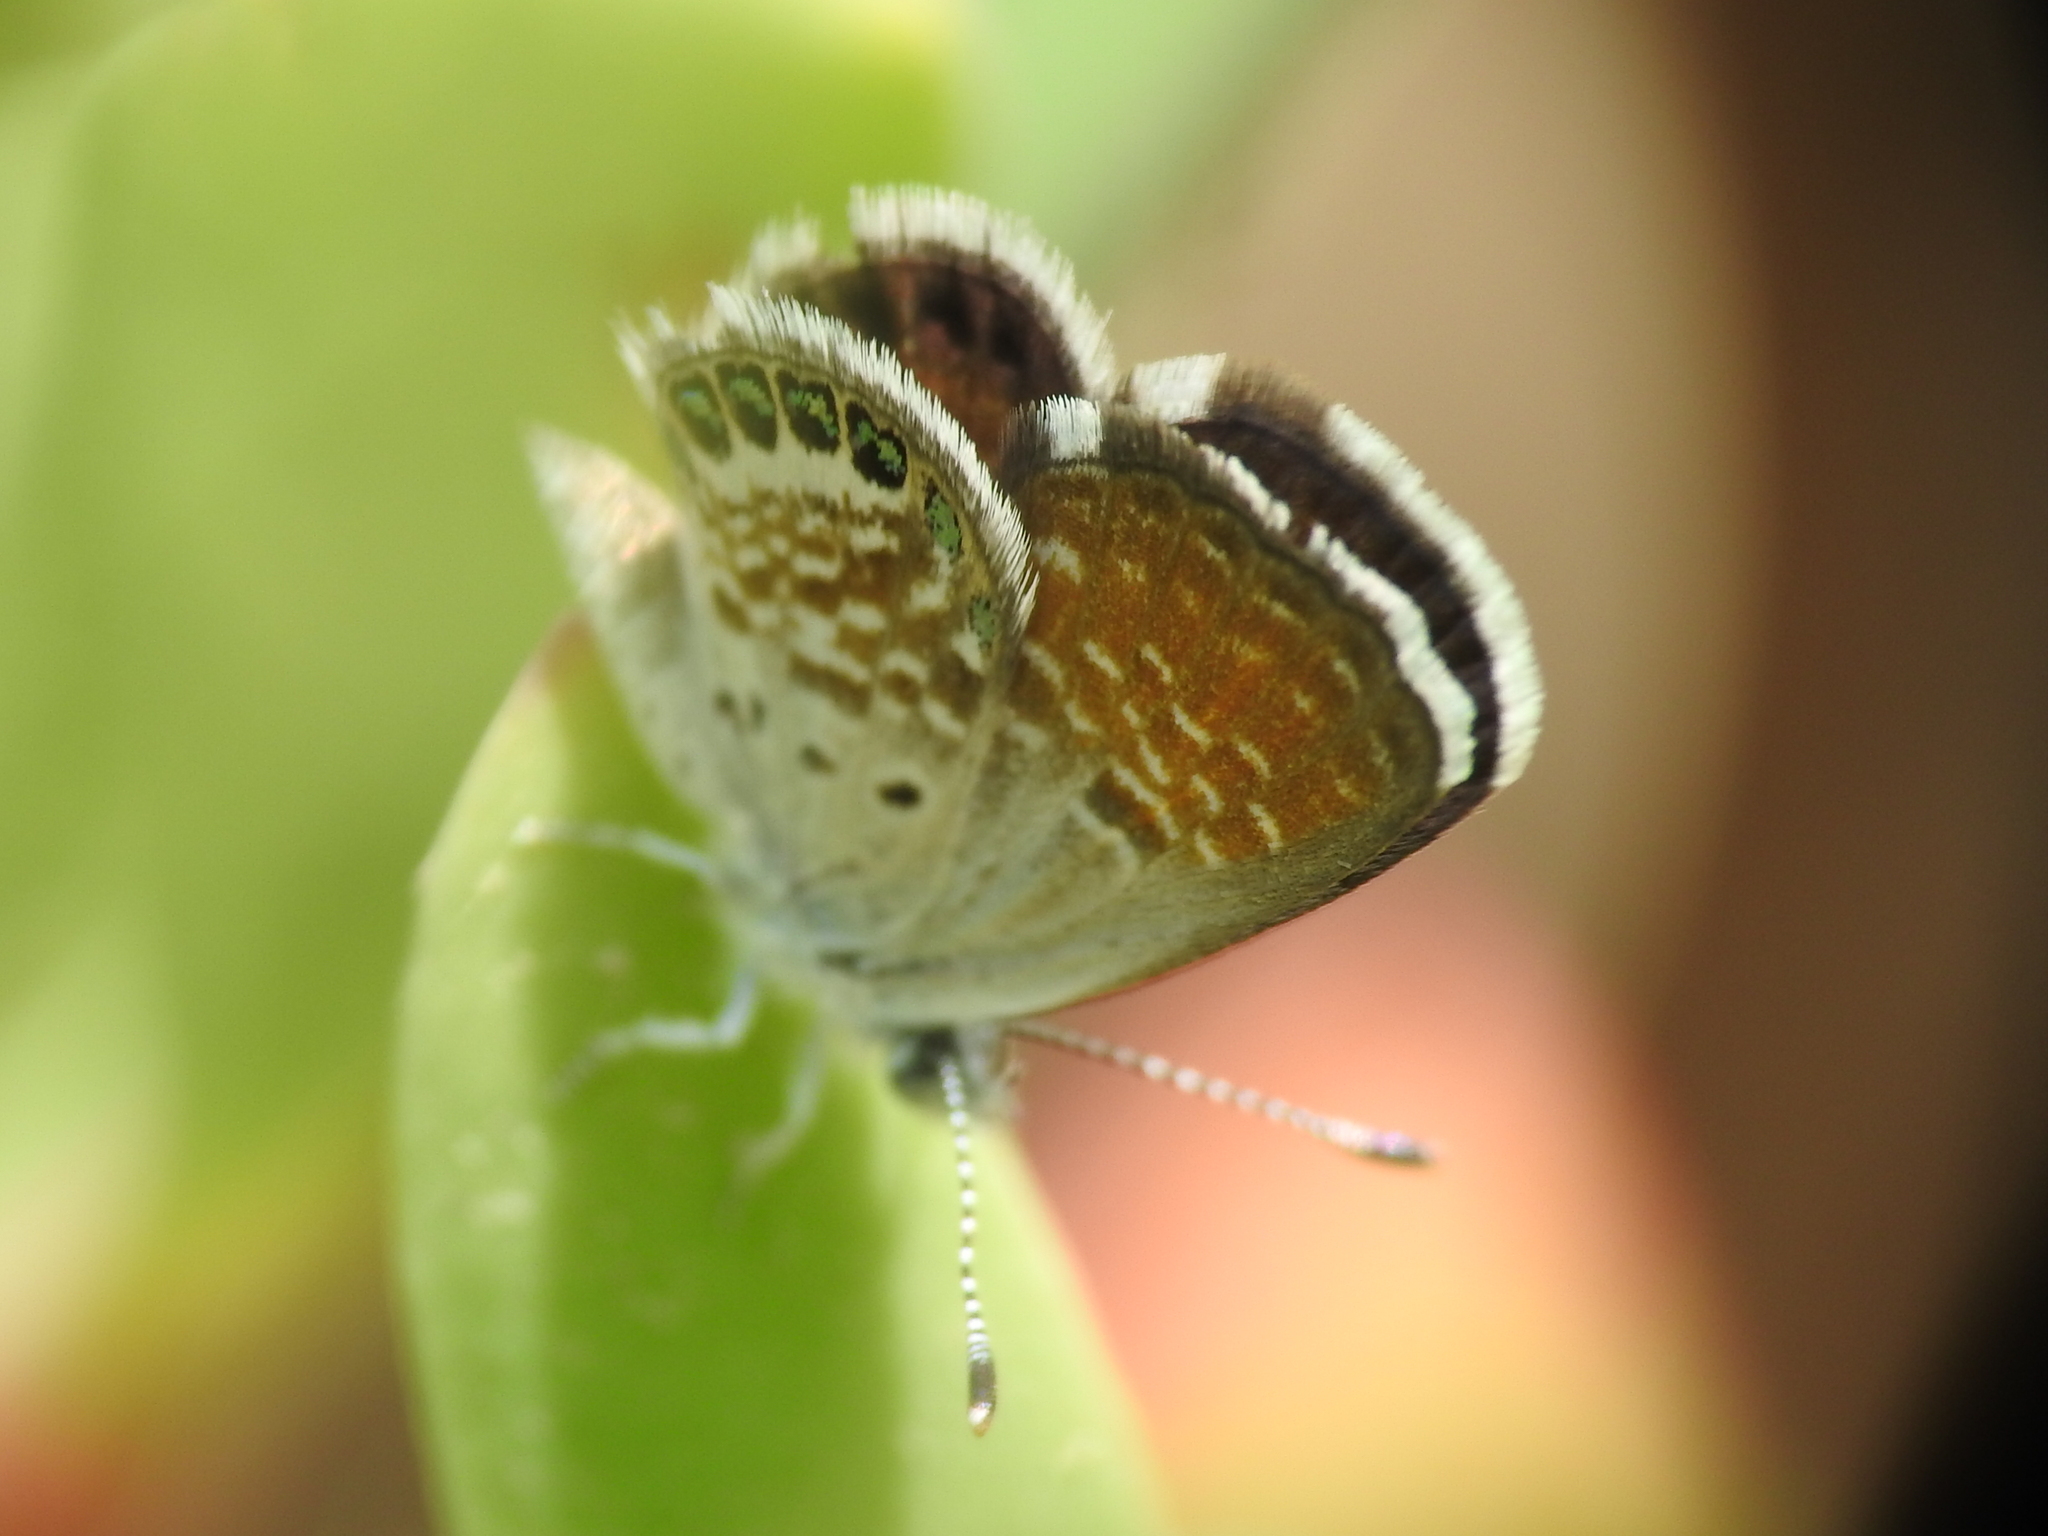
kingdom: Animalia
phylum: Arthropoda
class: Insecta
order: Lepidoptera
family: Lycaenidae
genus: Brephidium
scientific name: Brephidium exilis
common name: Pygmy blue
